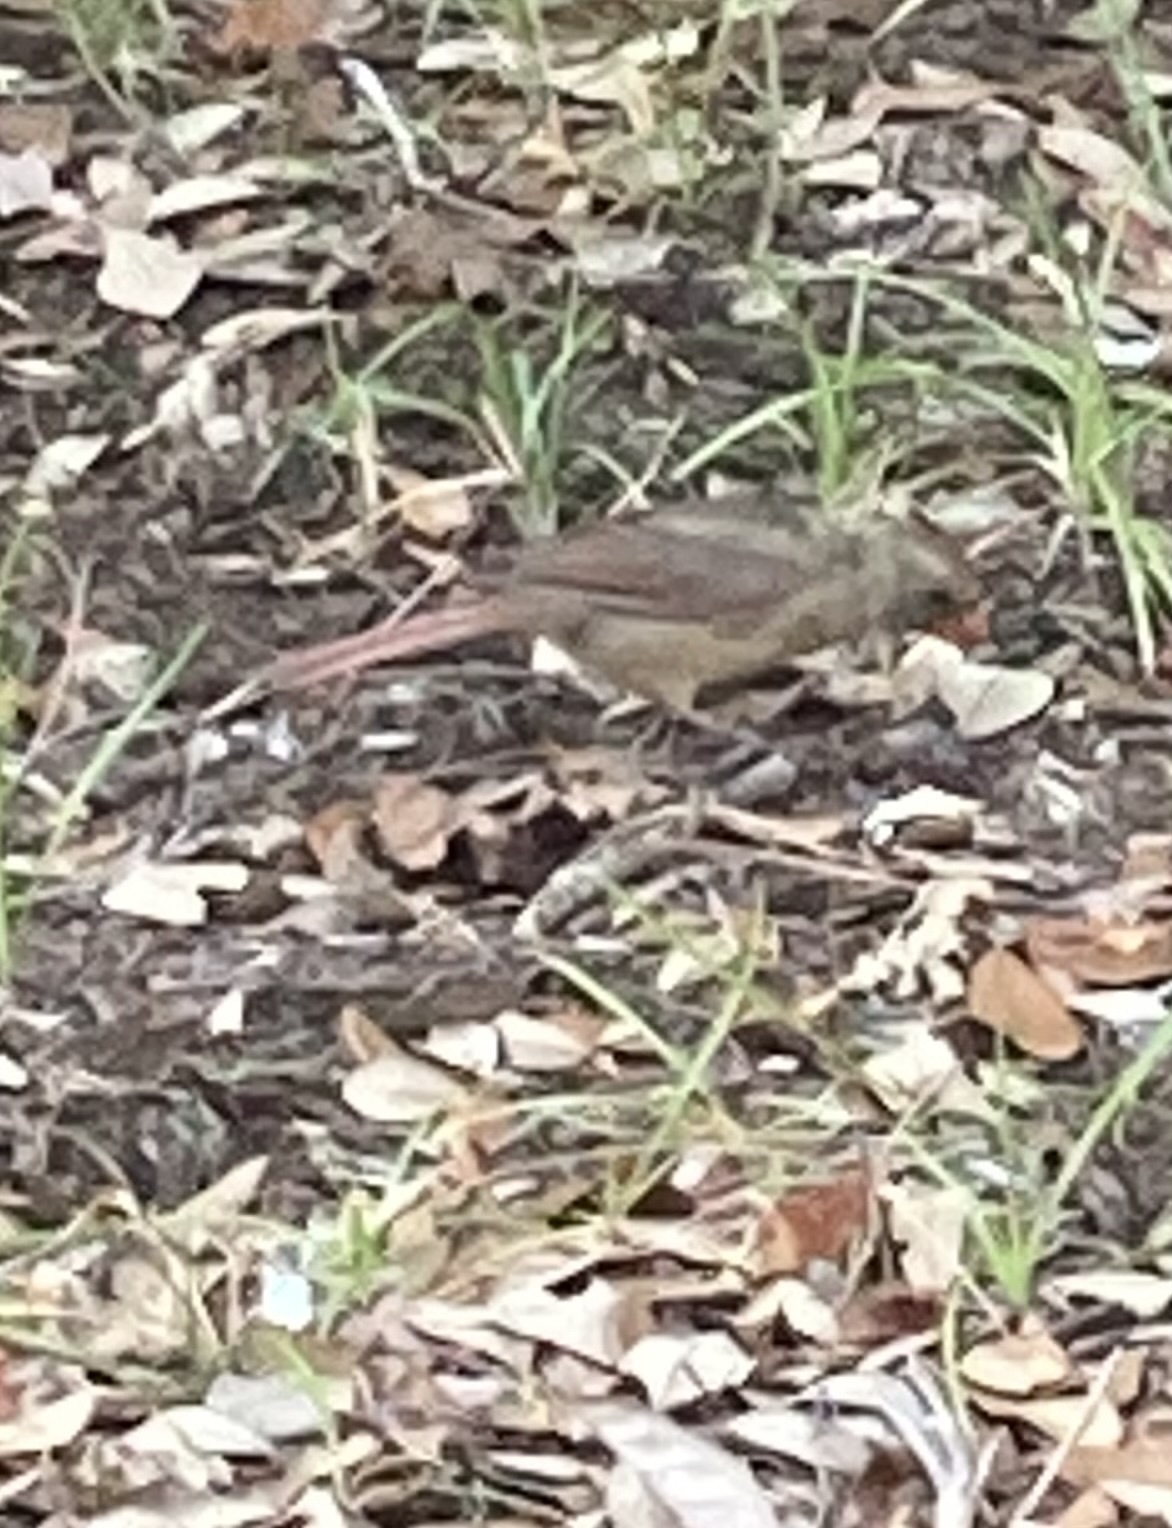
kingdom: Animalia
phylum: Chordata
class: Aves
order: Passeriformes
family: Cardinalidae
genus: Cardinalis
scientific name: Cardinalis cardinalis
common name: Northern cardinal
